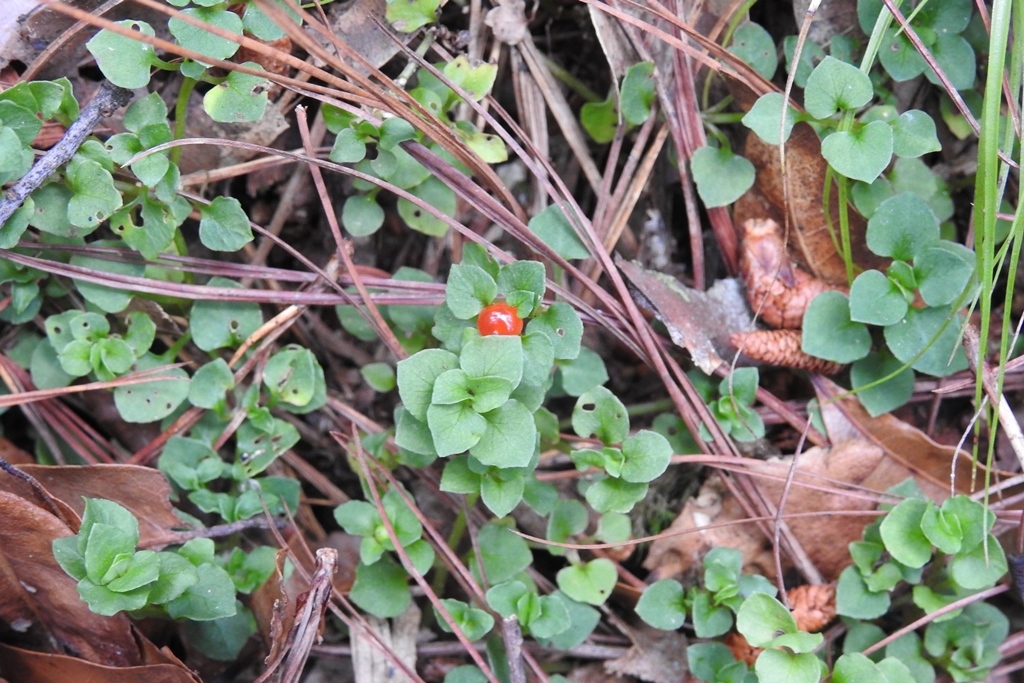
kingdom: Plantae
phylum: Tracheophyta
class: Magnoliopsida
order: Gentianales
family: Rubiaceae
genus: Nertera
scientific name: Nertera granadensis
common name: Beadplant
